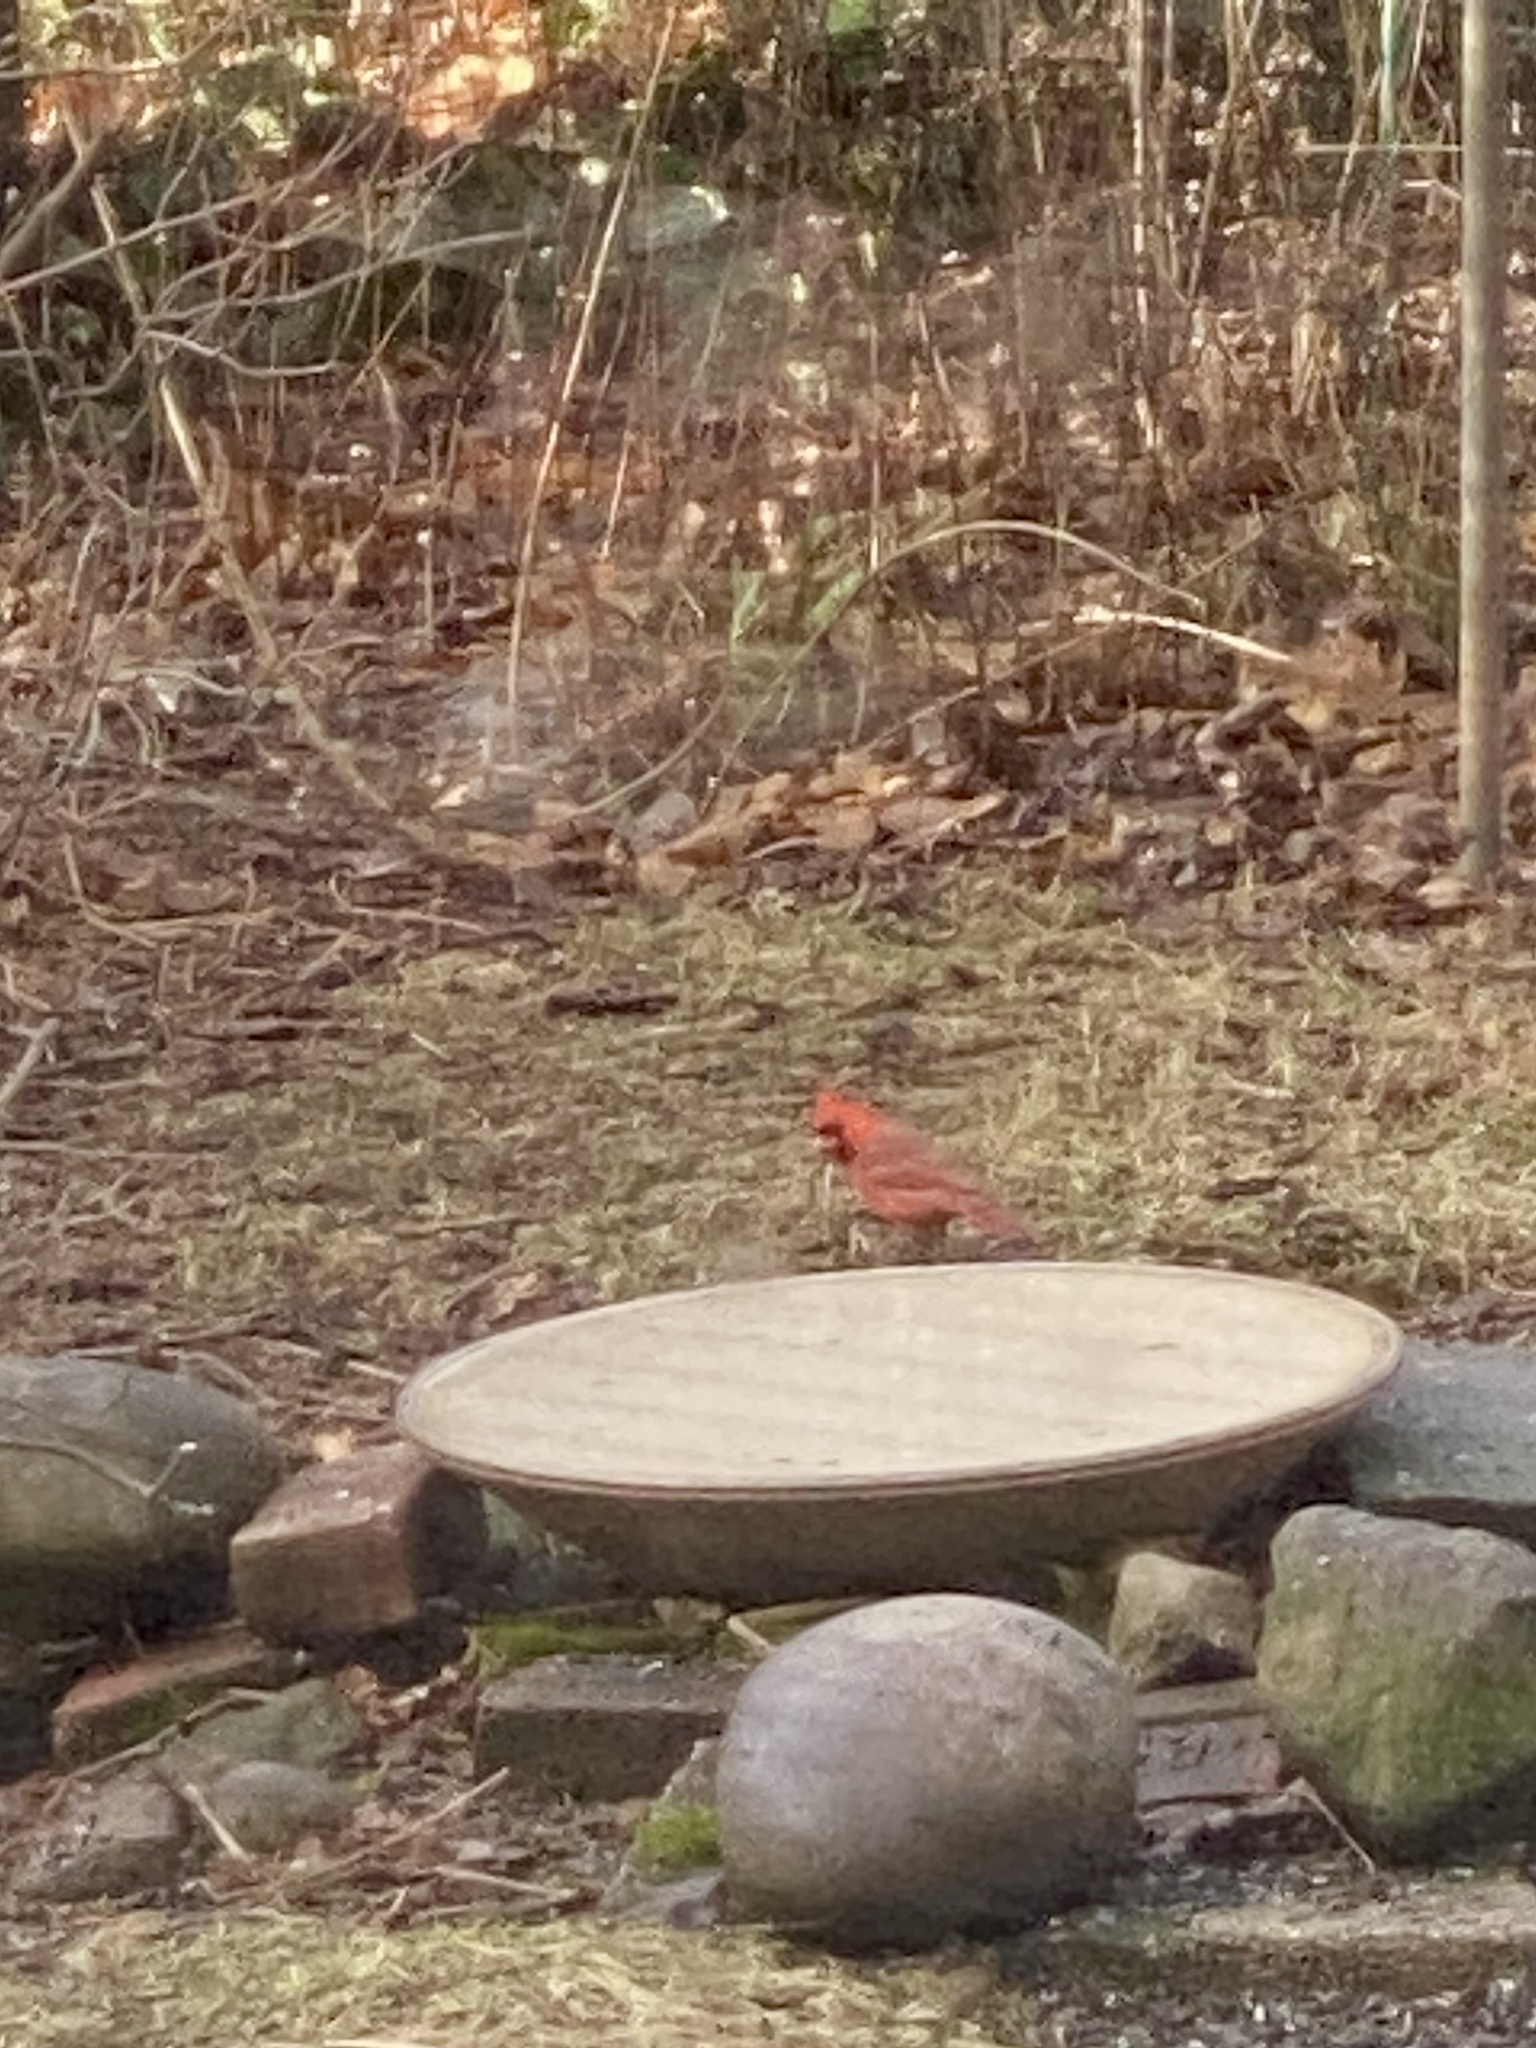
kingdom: Animalia
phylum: Chordata
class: Aves
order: Passeriformes
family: Cardinalidae
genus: Cardinalis
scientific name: Cardinalis cardinalis
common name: Northern cardinal
